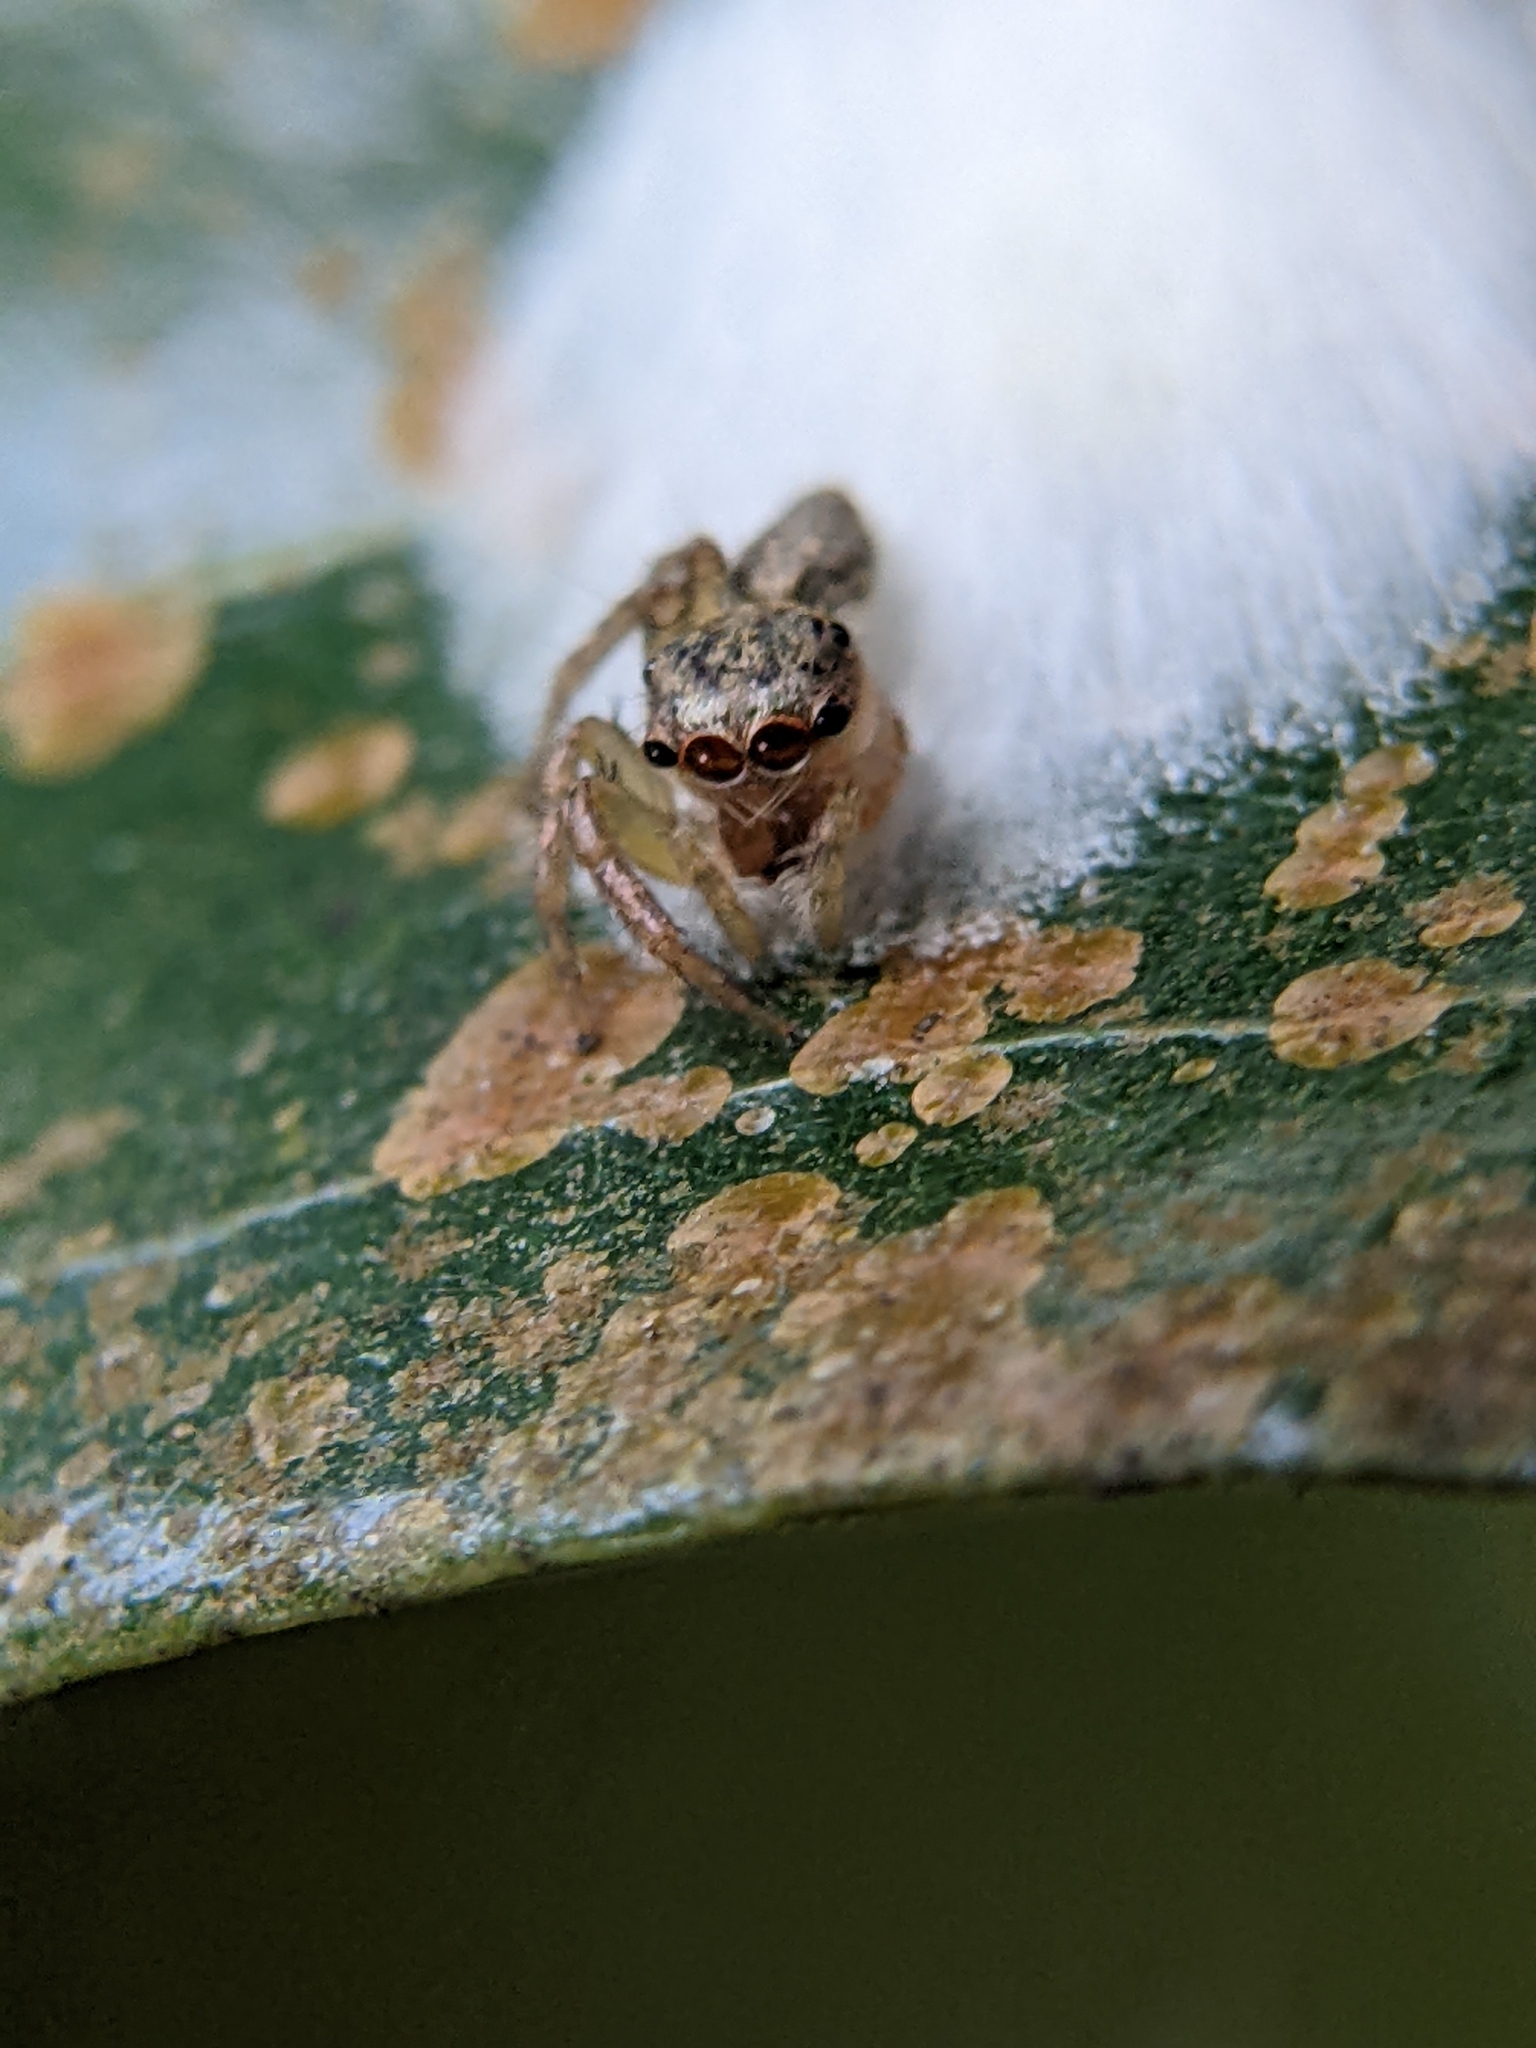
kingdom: Animalia
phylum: Arthropoda
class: Arachnida
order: Araneae
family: Salticidae
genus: Cytaea
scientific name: Cytaea oreophila
